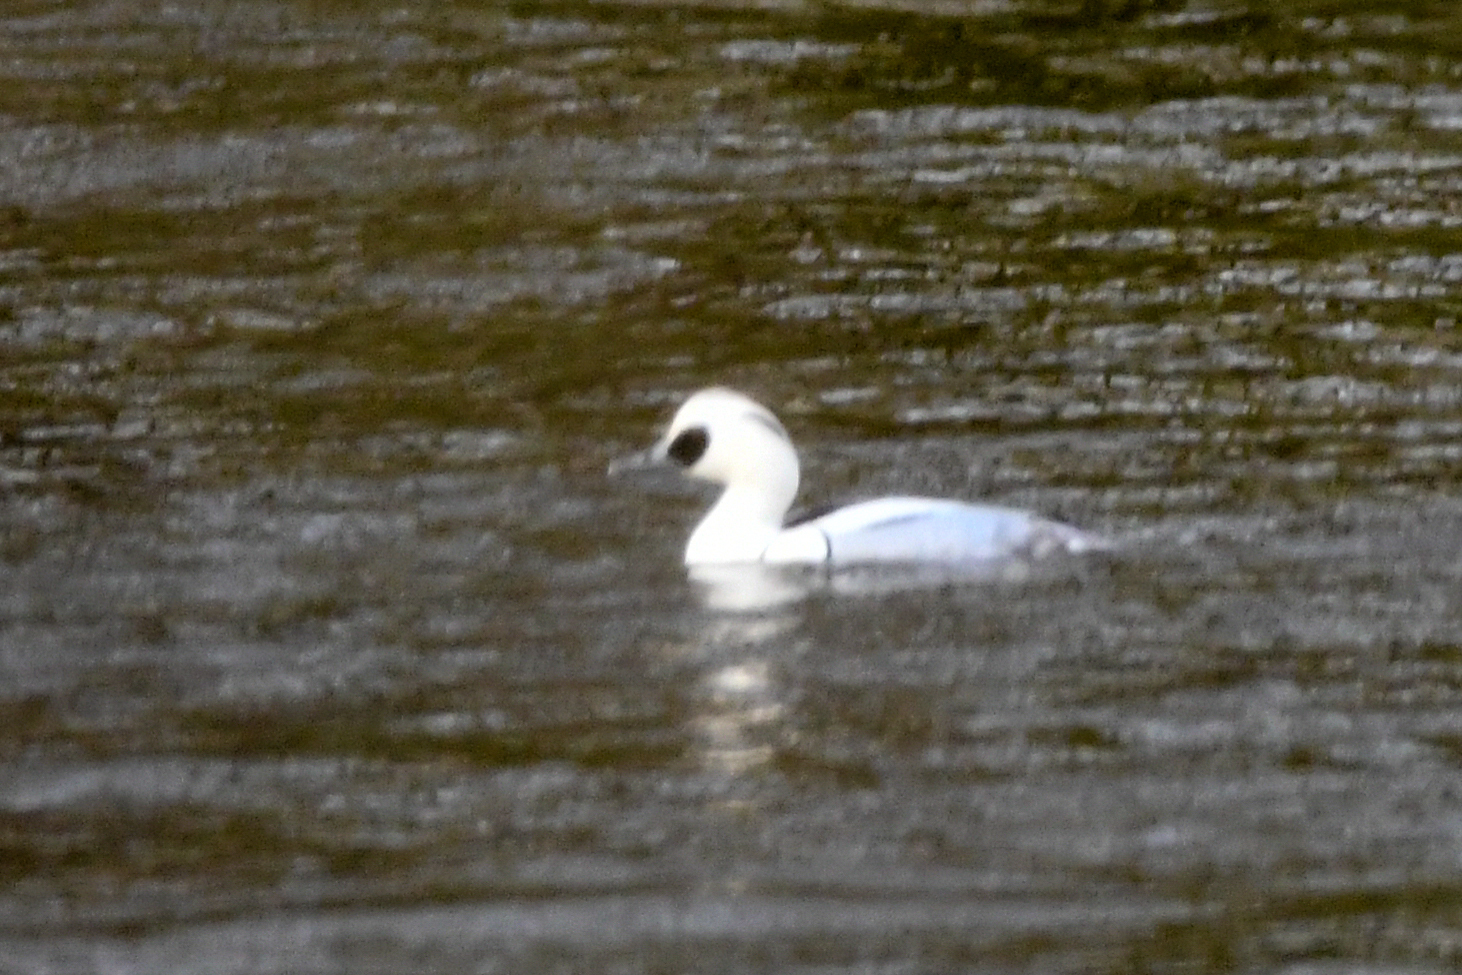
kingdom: Animalia
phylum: Chordata
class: Aves
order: Anseriformes
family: Anatidae
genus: Mergellus
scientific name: Mergellus albellus
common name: Smew
